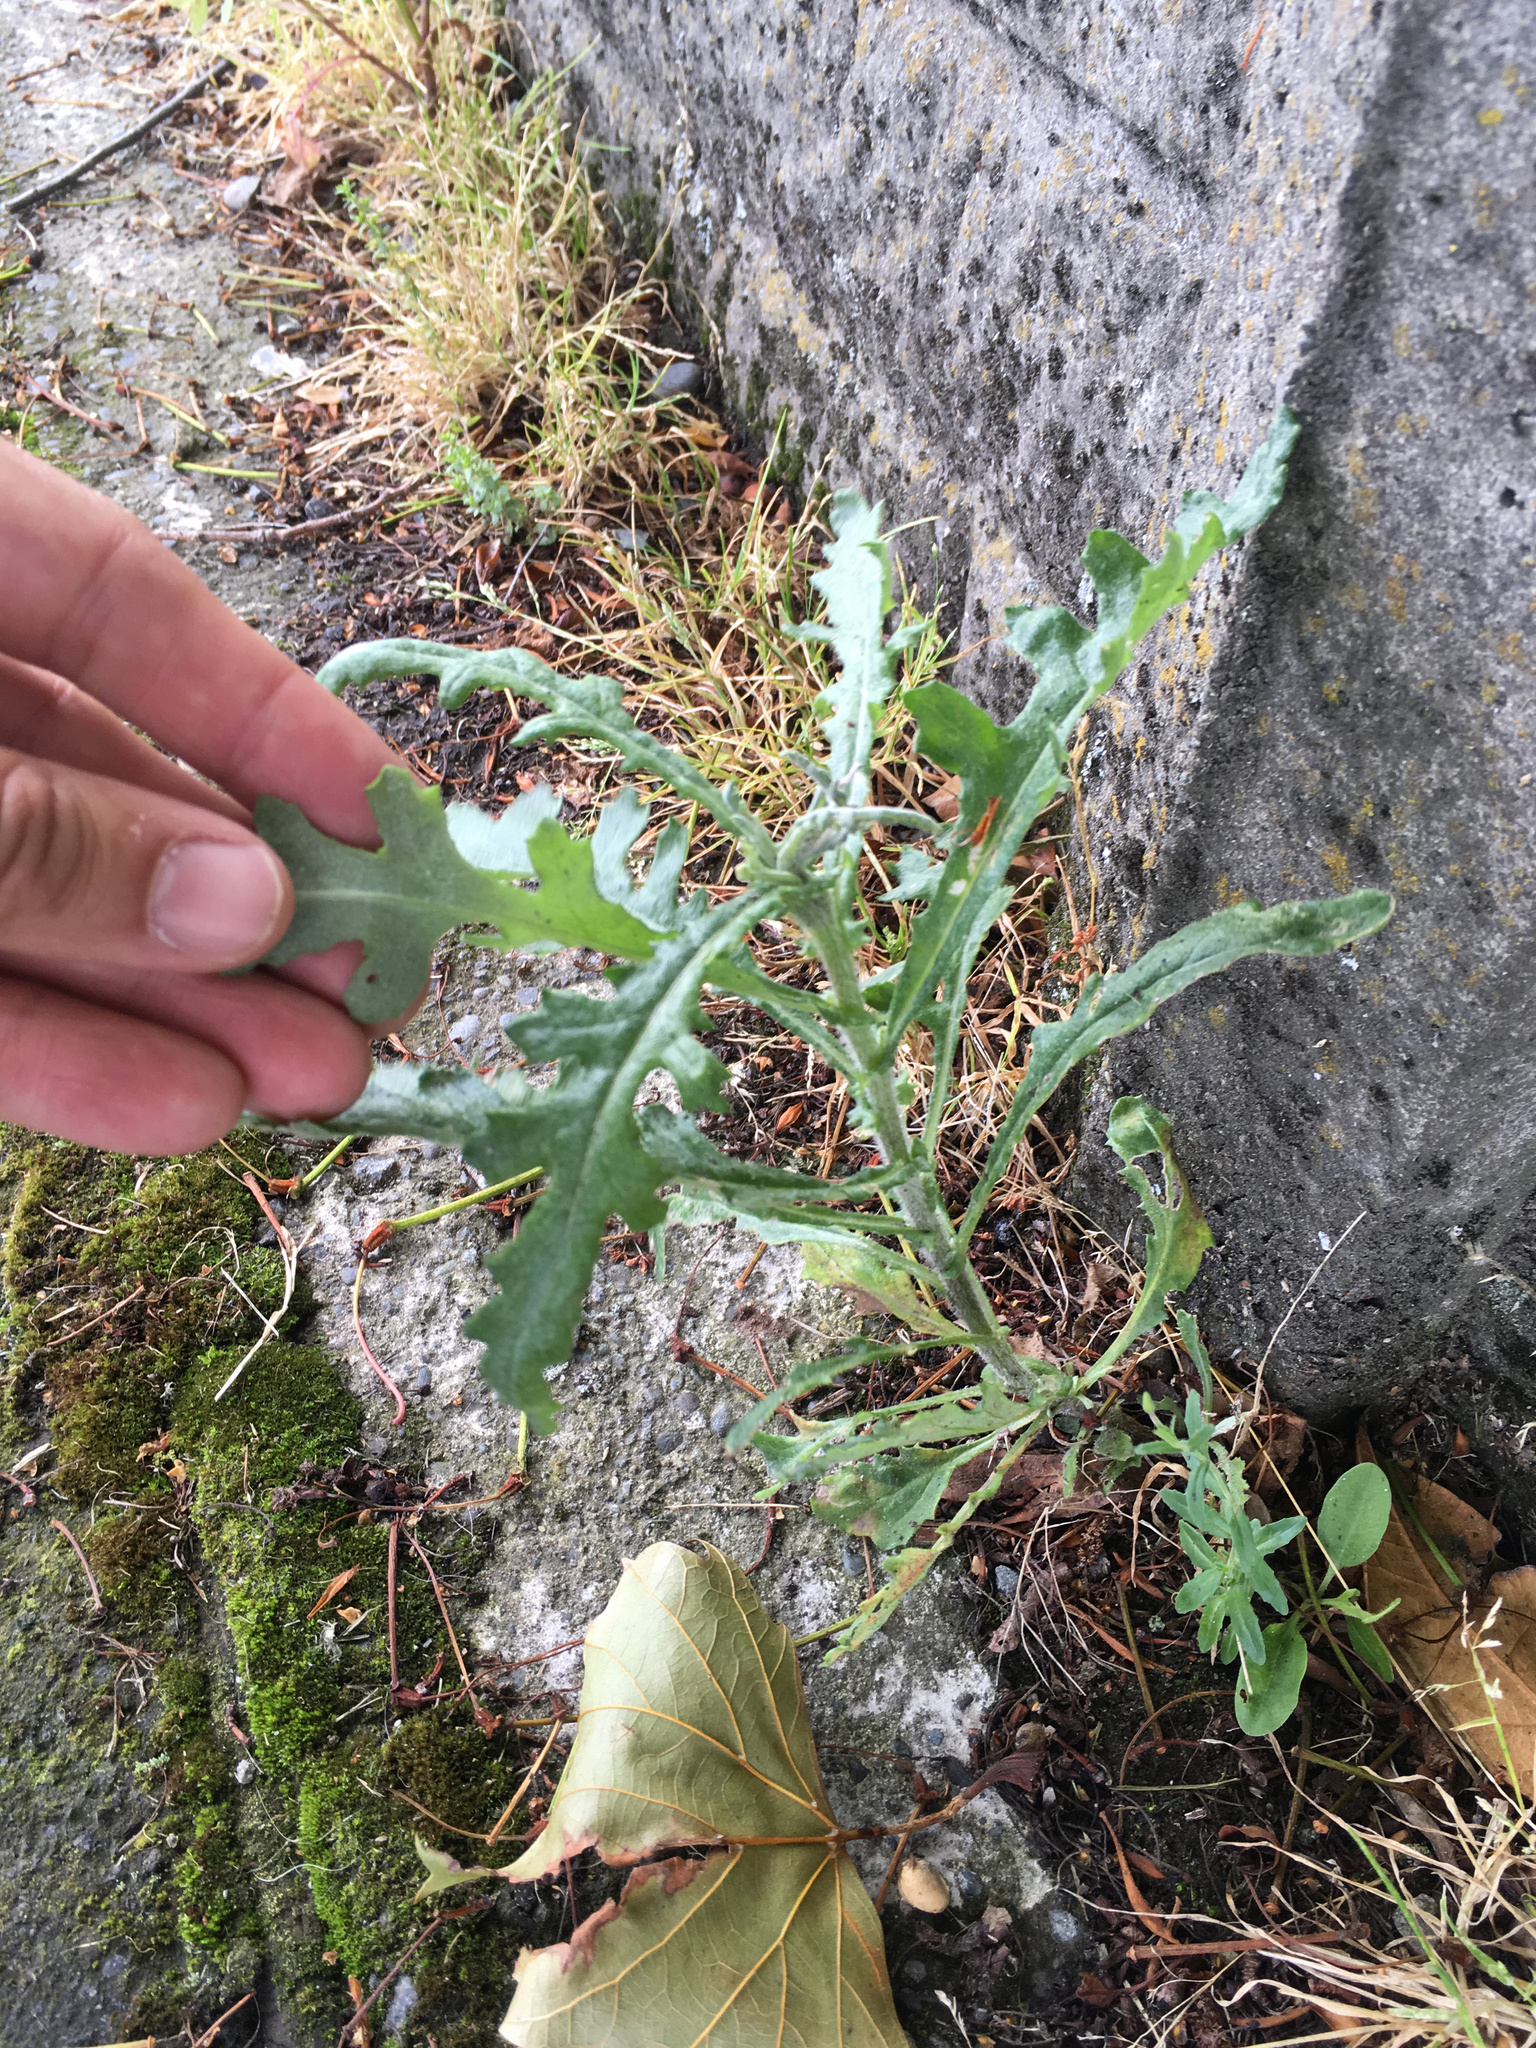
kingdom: Plantae
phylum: Tracheophyta
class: Magnoliopsida
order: Asterales
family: Asteraceae
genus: Senecio
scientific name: Senecio glomeratus
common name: Cutleaf burnweed
